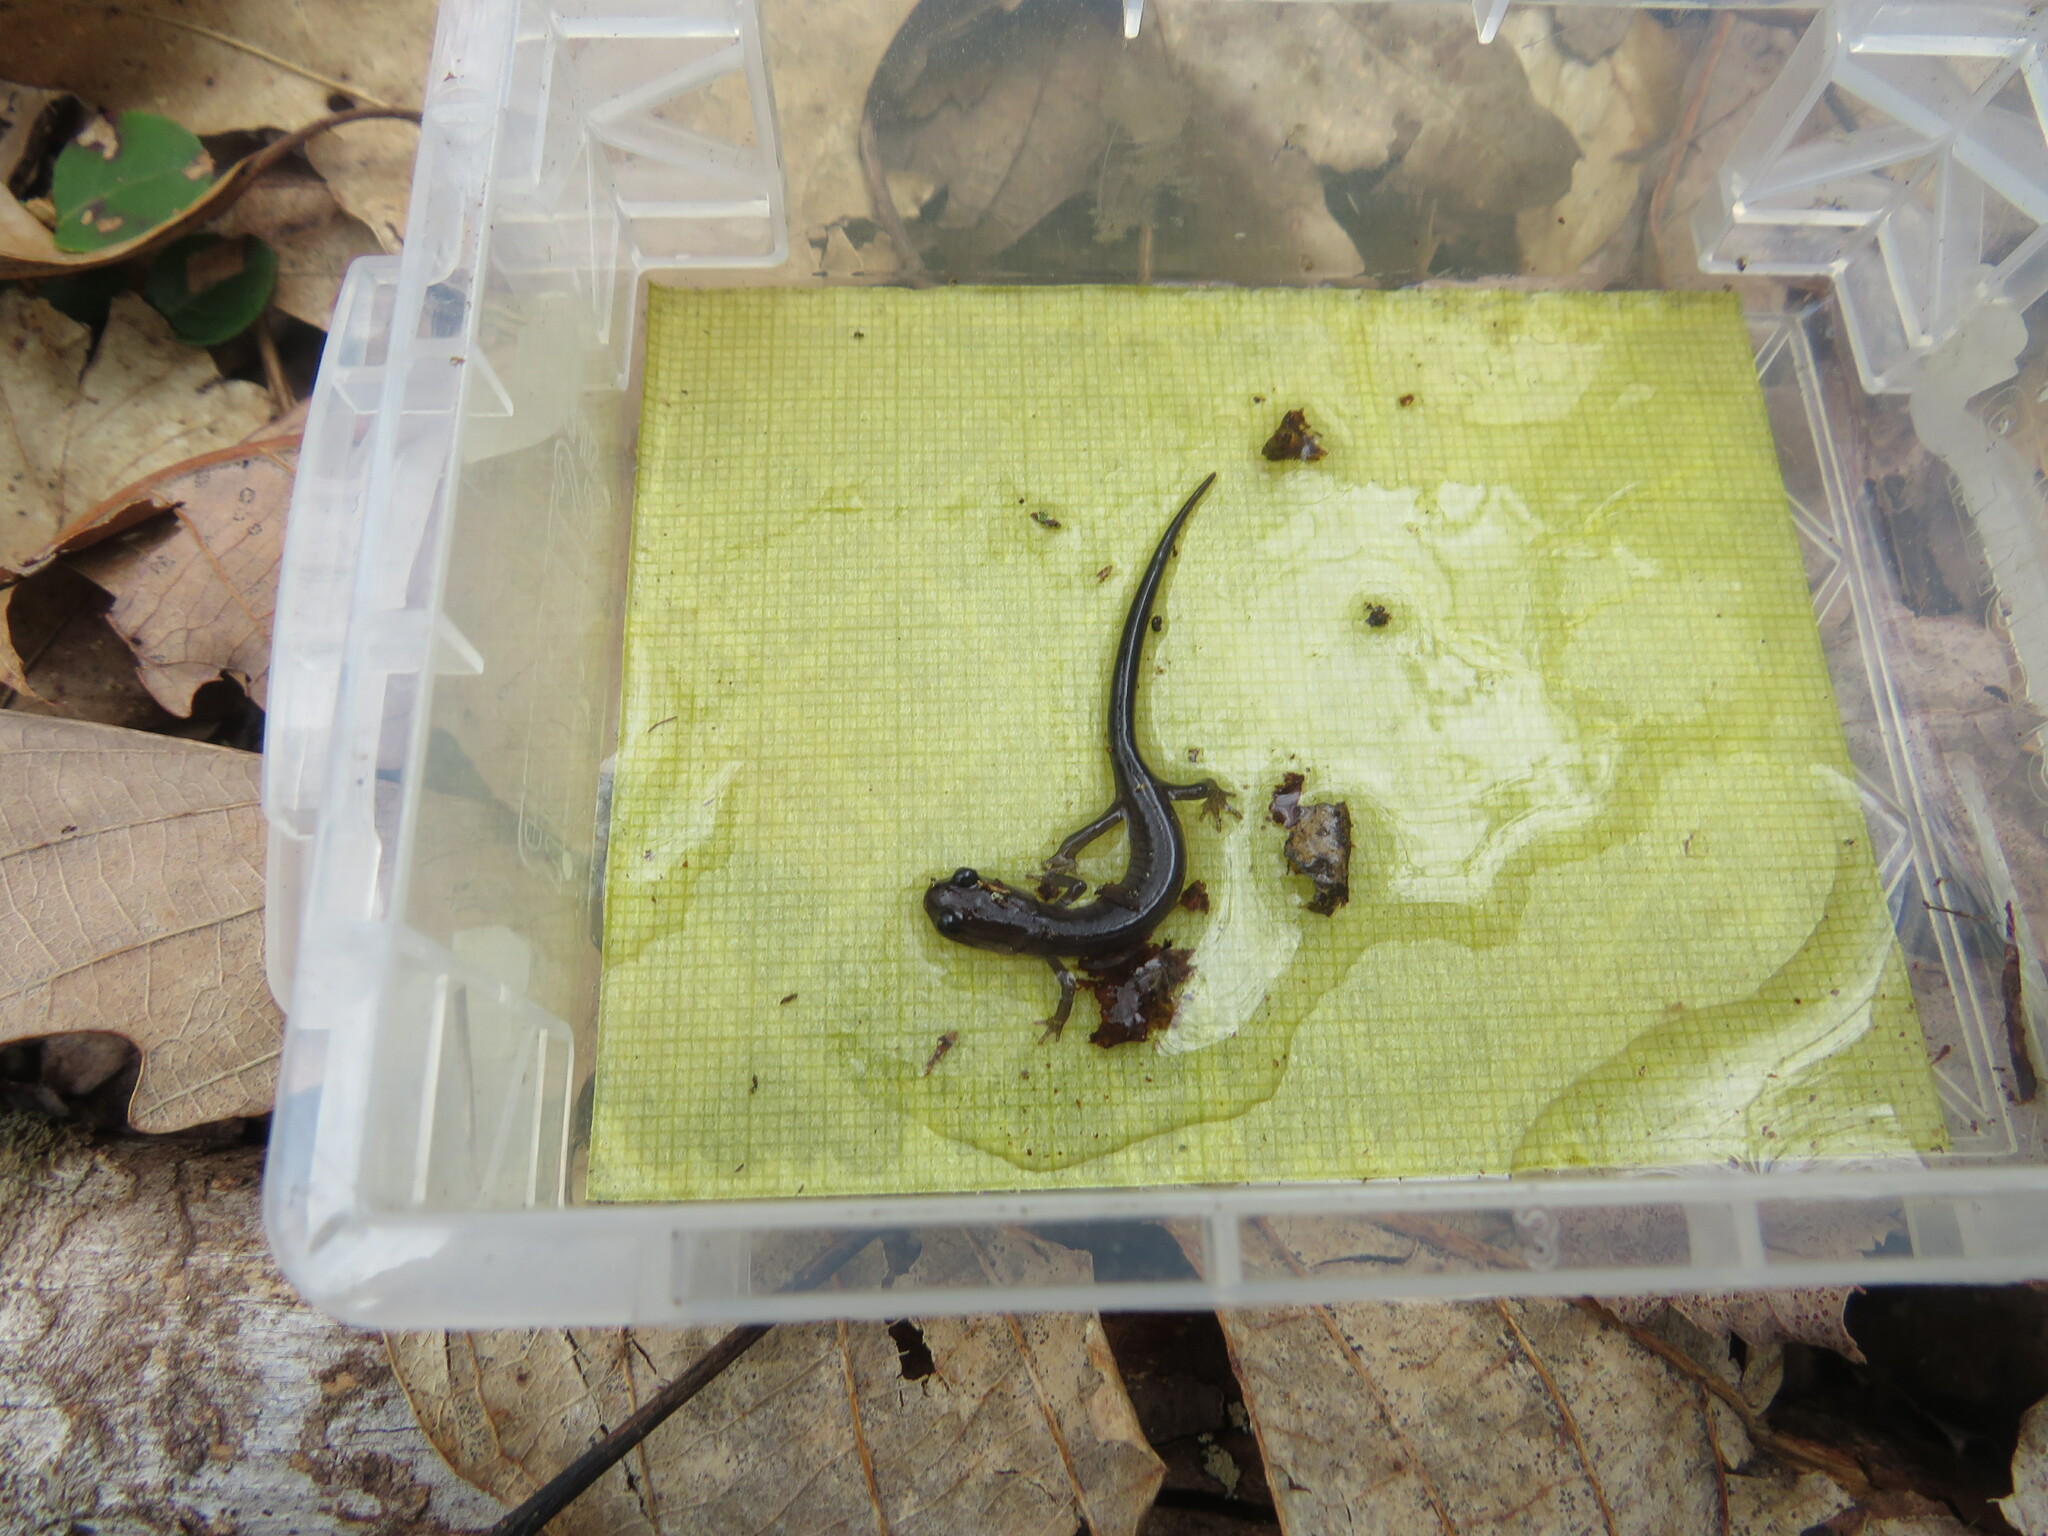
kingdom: Animalia
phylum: Chordata
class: Amphibia
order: Caudata
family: Plethodontidae
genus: Plethodon
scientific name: Plethodon montanus
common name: Northern gray-cheeked salamander
